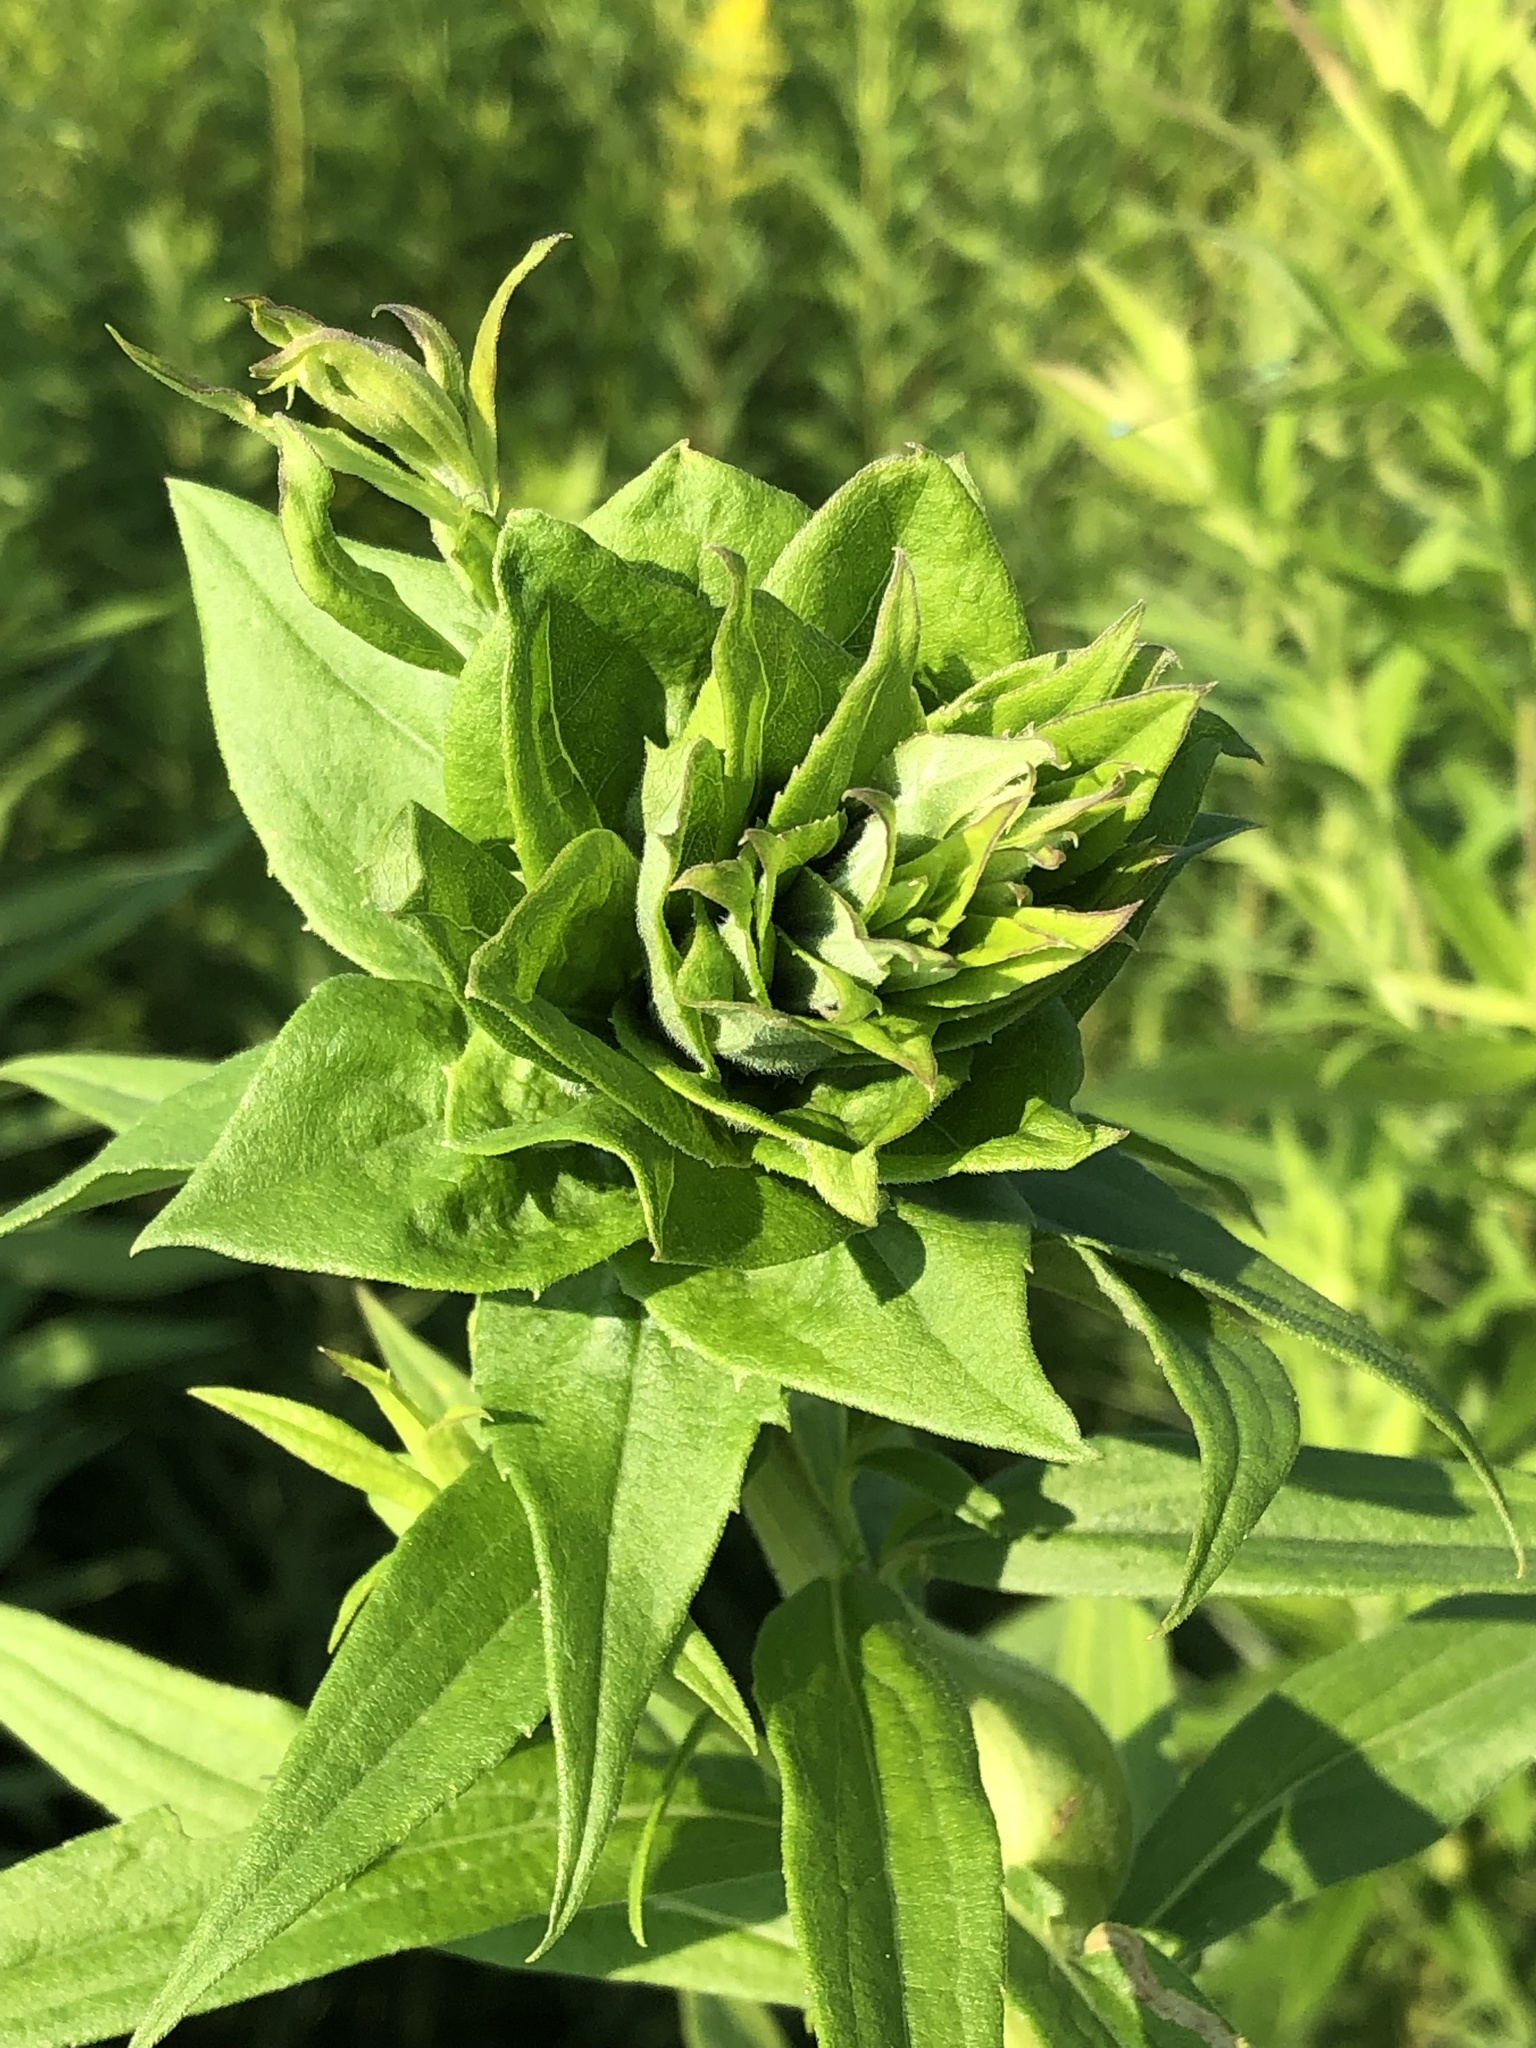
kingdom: Animalia
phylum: Arthropoda
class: Insecta
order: Diptera
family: Cecidomyiidae
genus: Rhopalomyia
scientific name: Rhopalomyia solidaginis
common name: Goldenrod bunch gall midge
